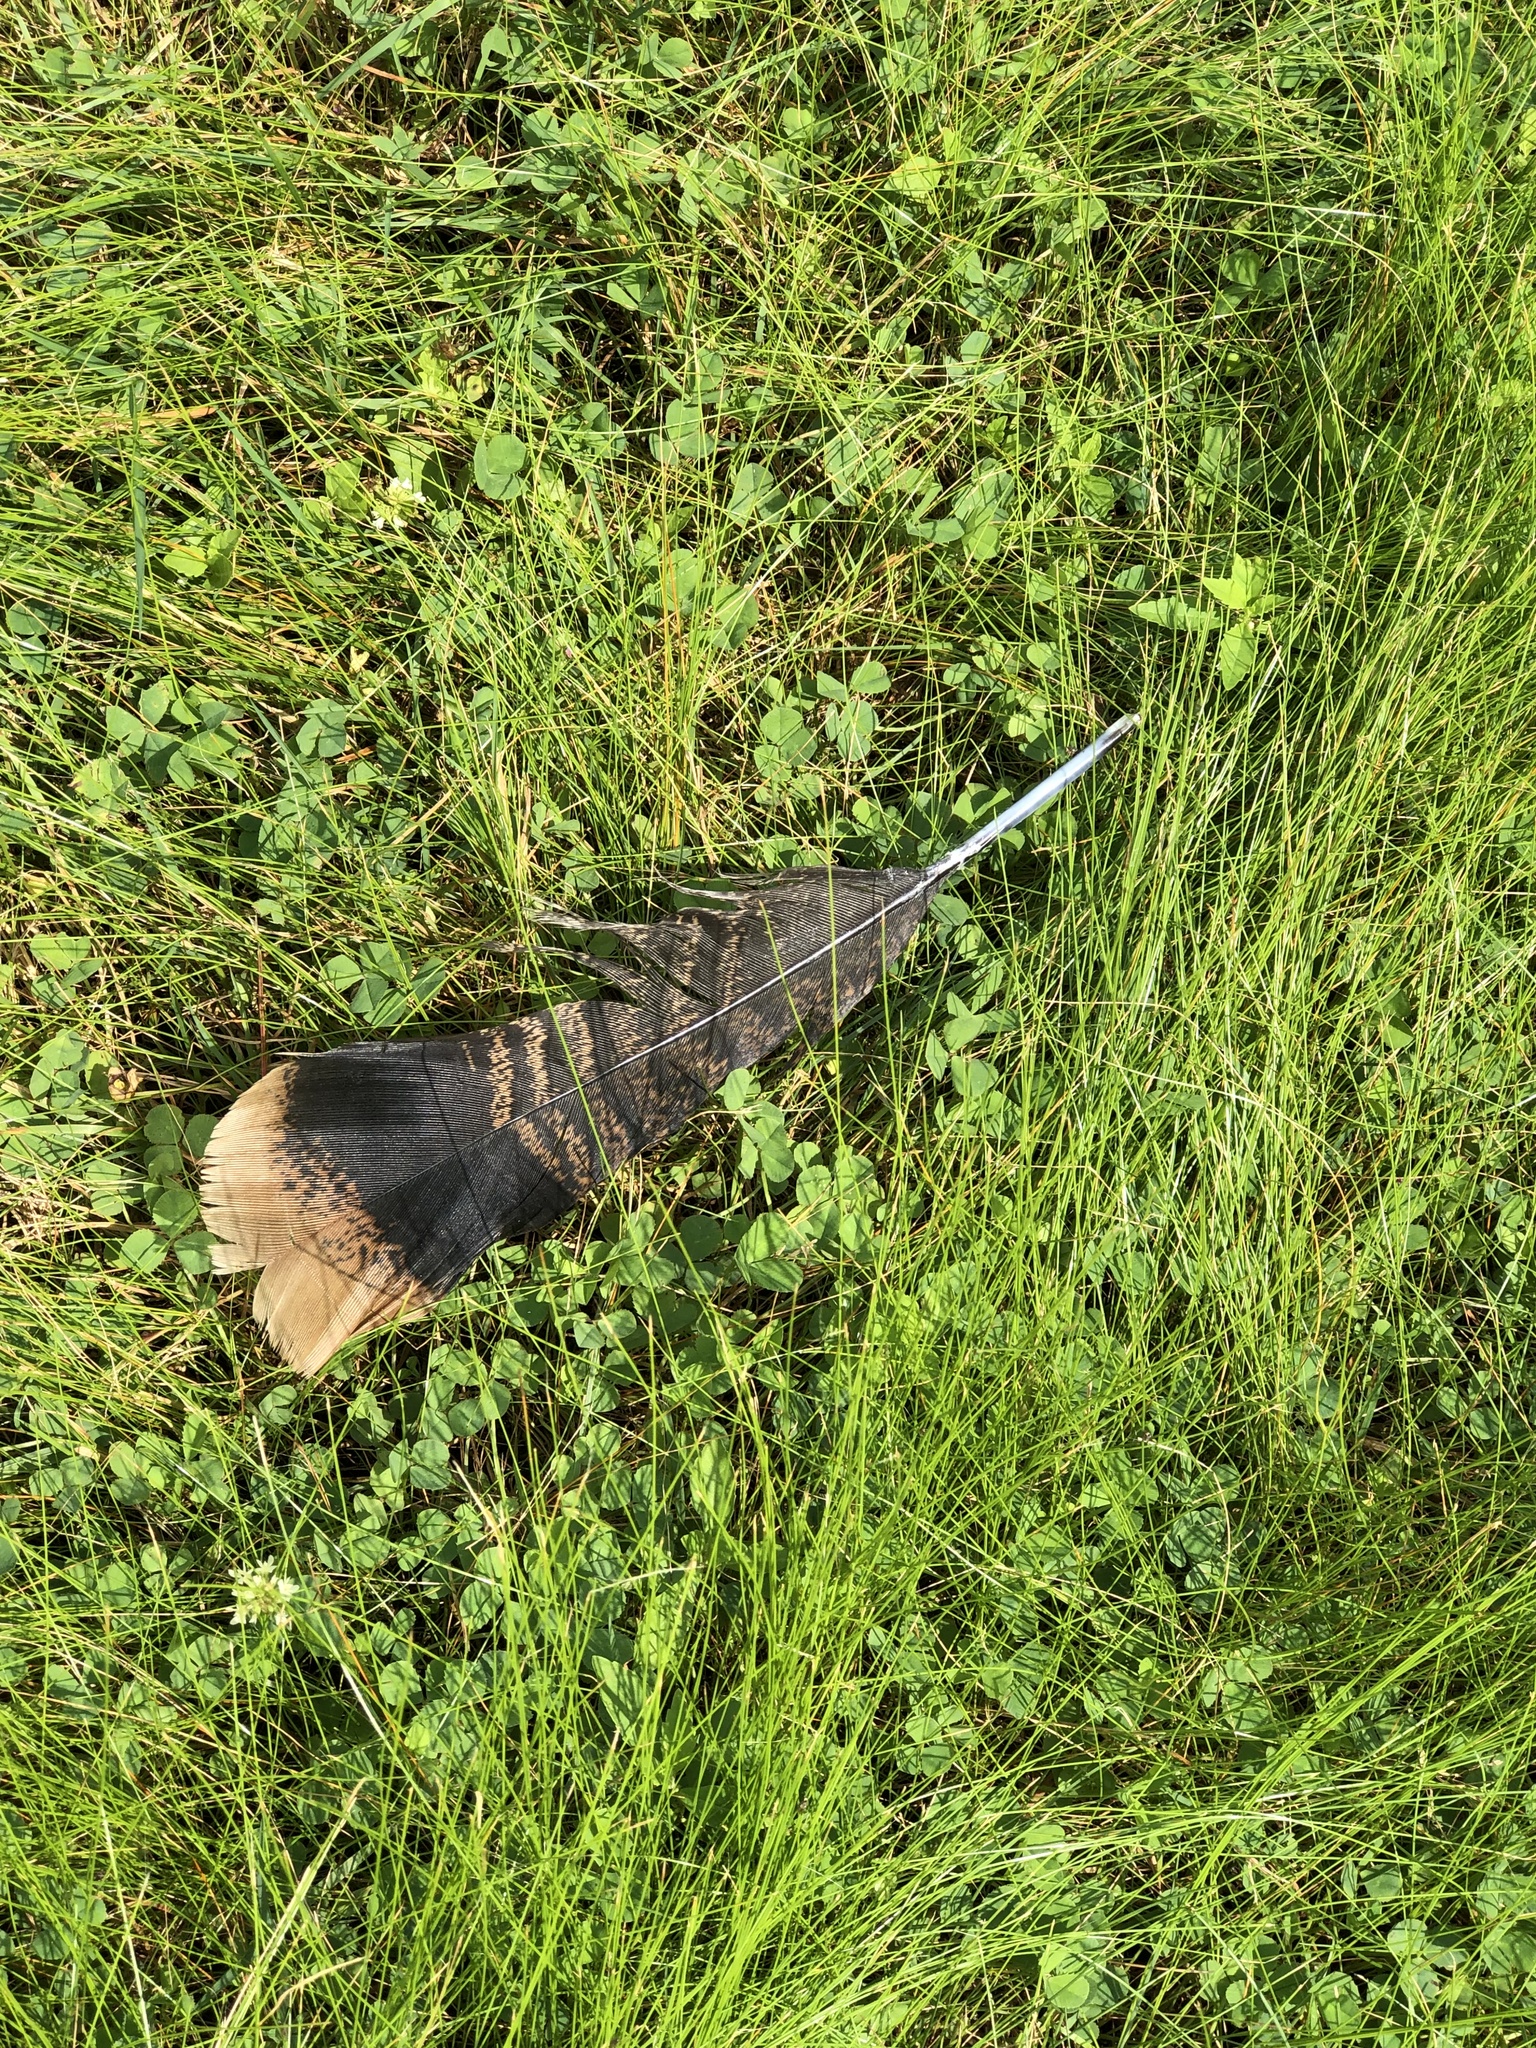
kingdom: Animalia
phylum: Chordata
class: Aves
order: Galliformes
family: Phasianidae
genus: Meleagris
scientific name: Meleagris gallopavo
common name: Wild turkey
